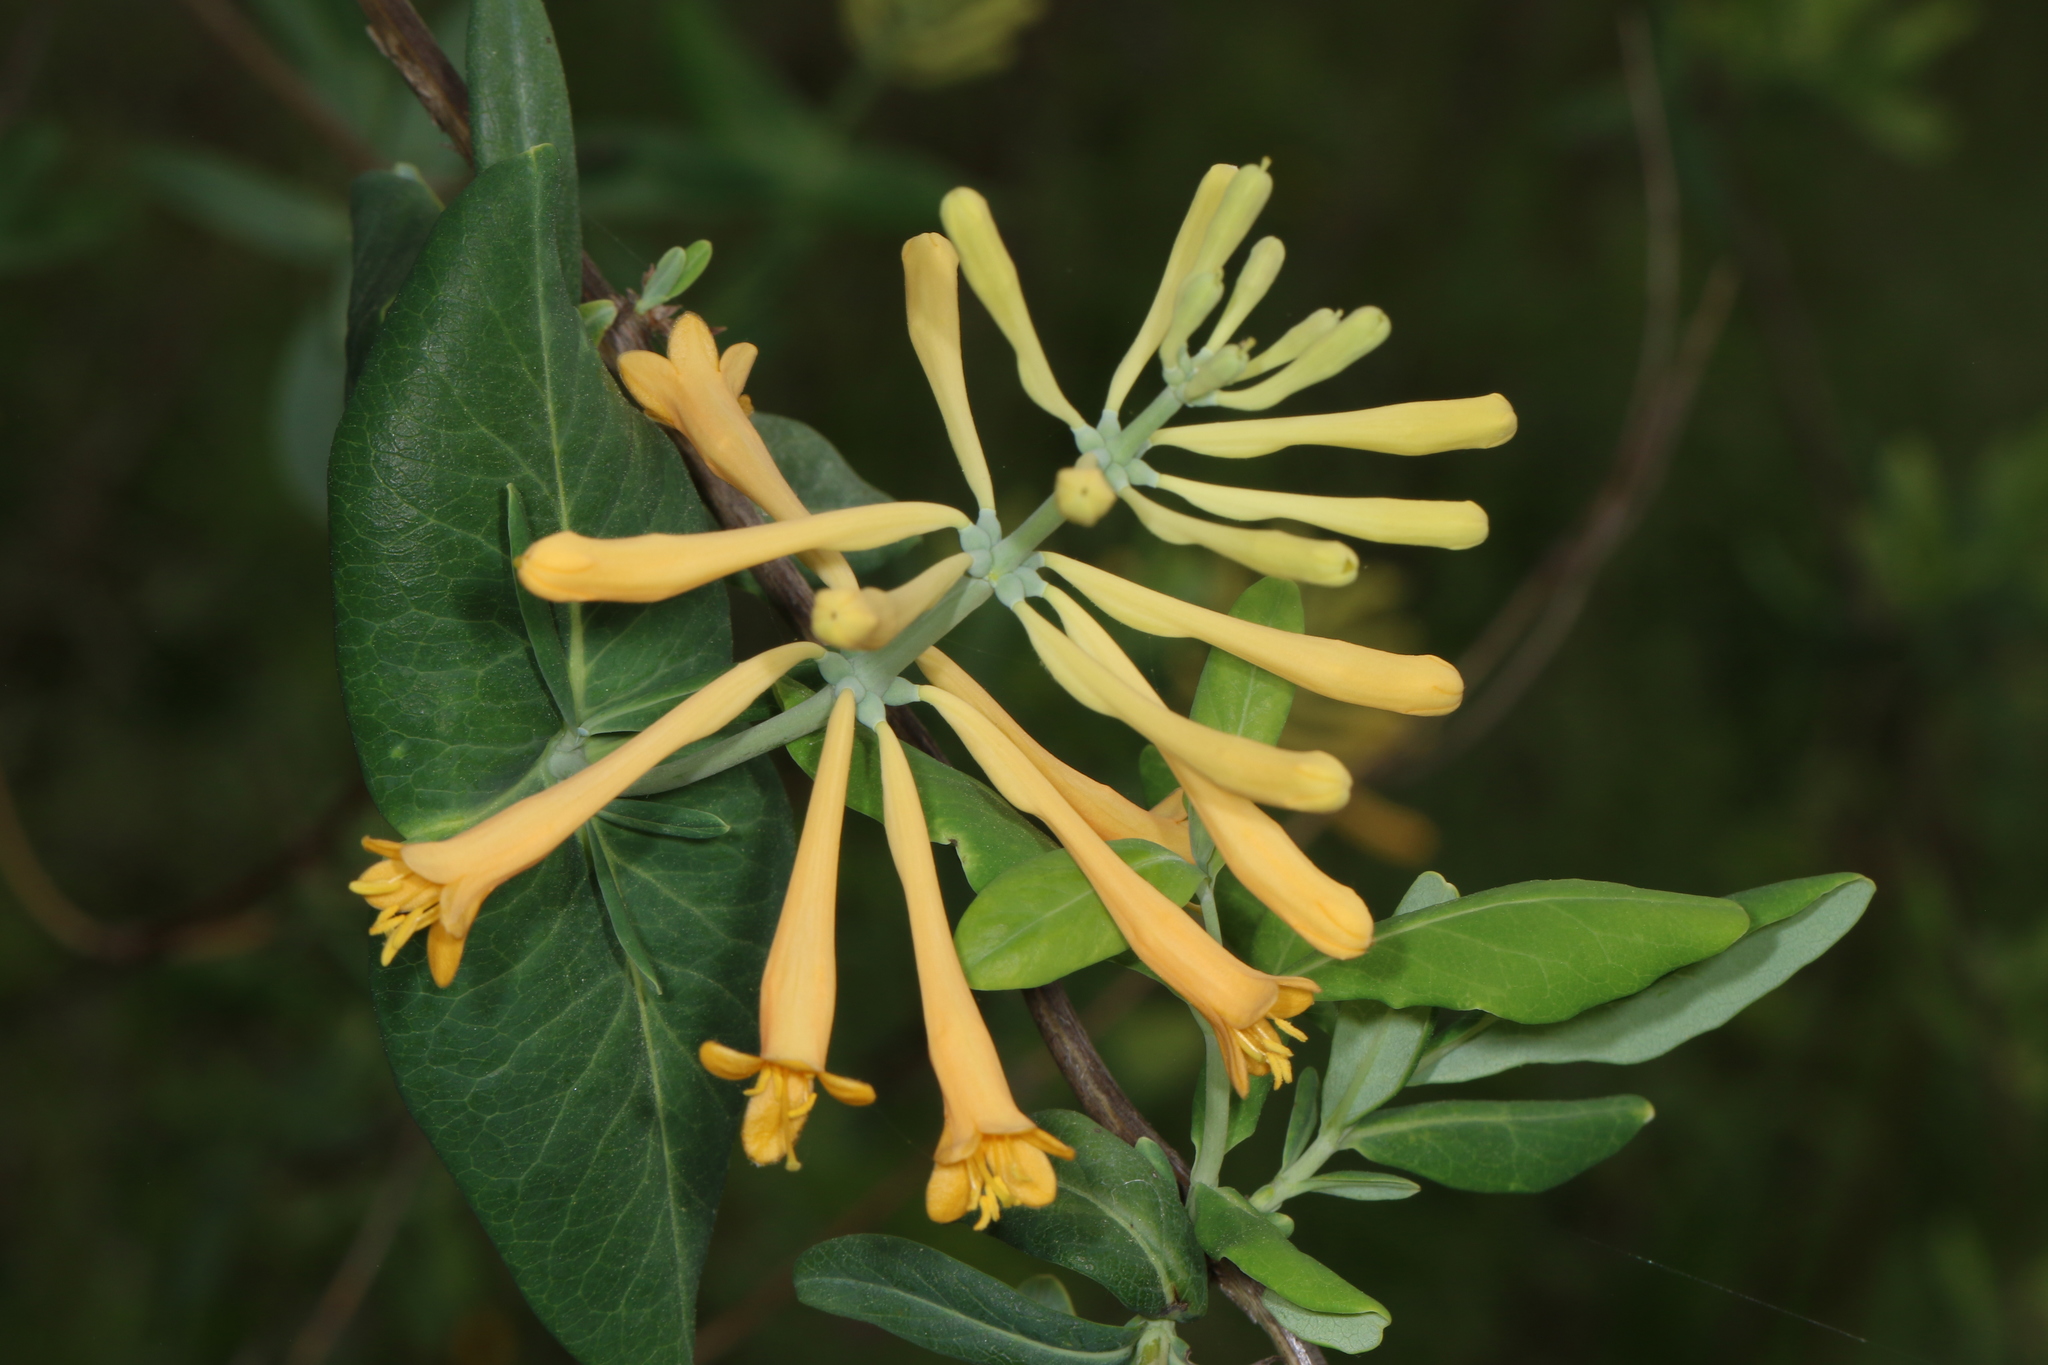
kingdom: Plantae
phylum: Tracheophyta
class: Magnoliopsida
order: Dipsacales
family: Caprifoliaceae
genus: Lonicera
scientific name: Lonicera sempervirens
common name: Coral honeysuckle
